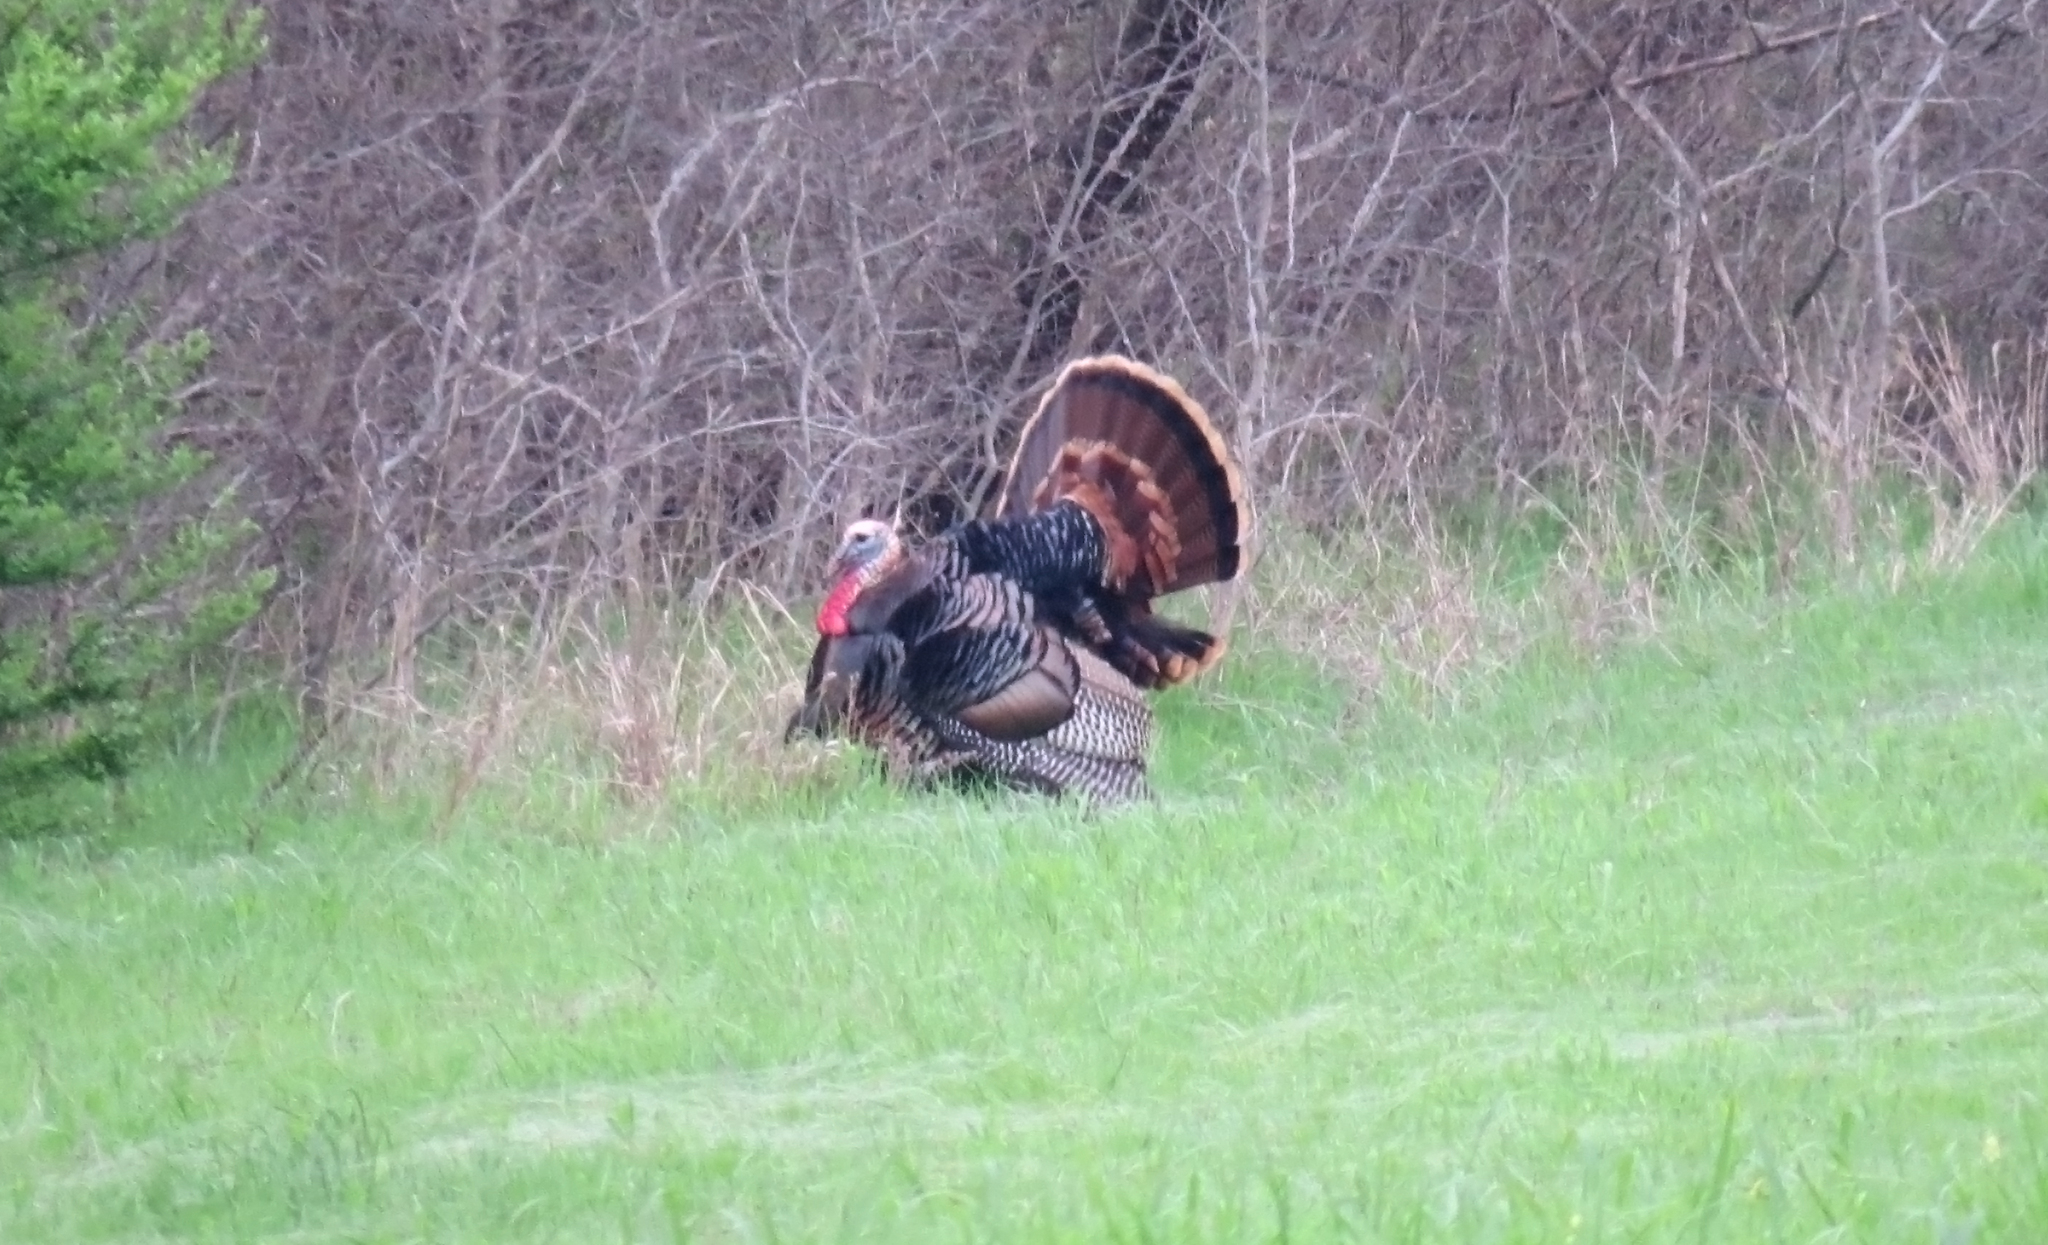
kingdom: Animalia
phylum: Chordata
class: Aves
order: Galliformes
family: Phasianidae
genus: Meleagris
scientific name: Meleagris gallopavo
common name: Wild turkey
